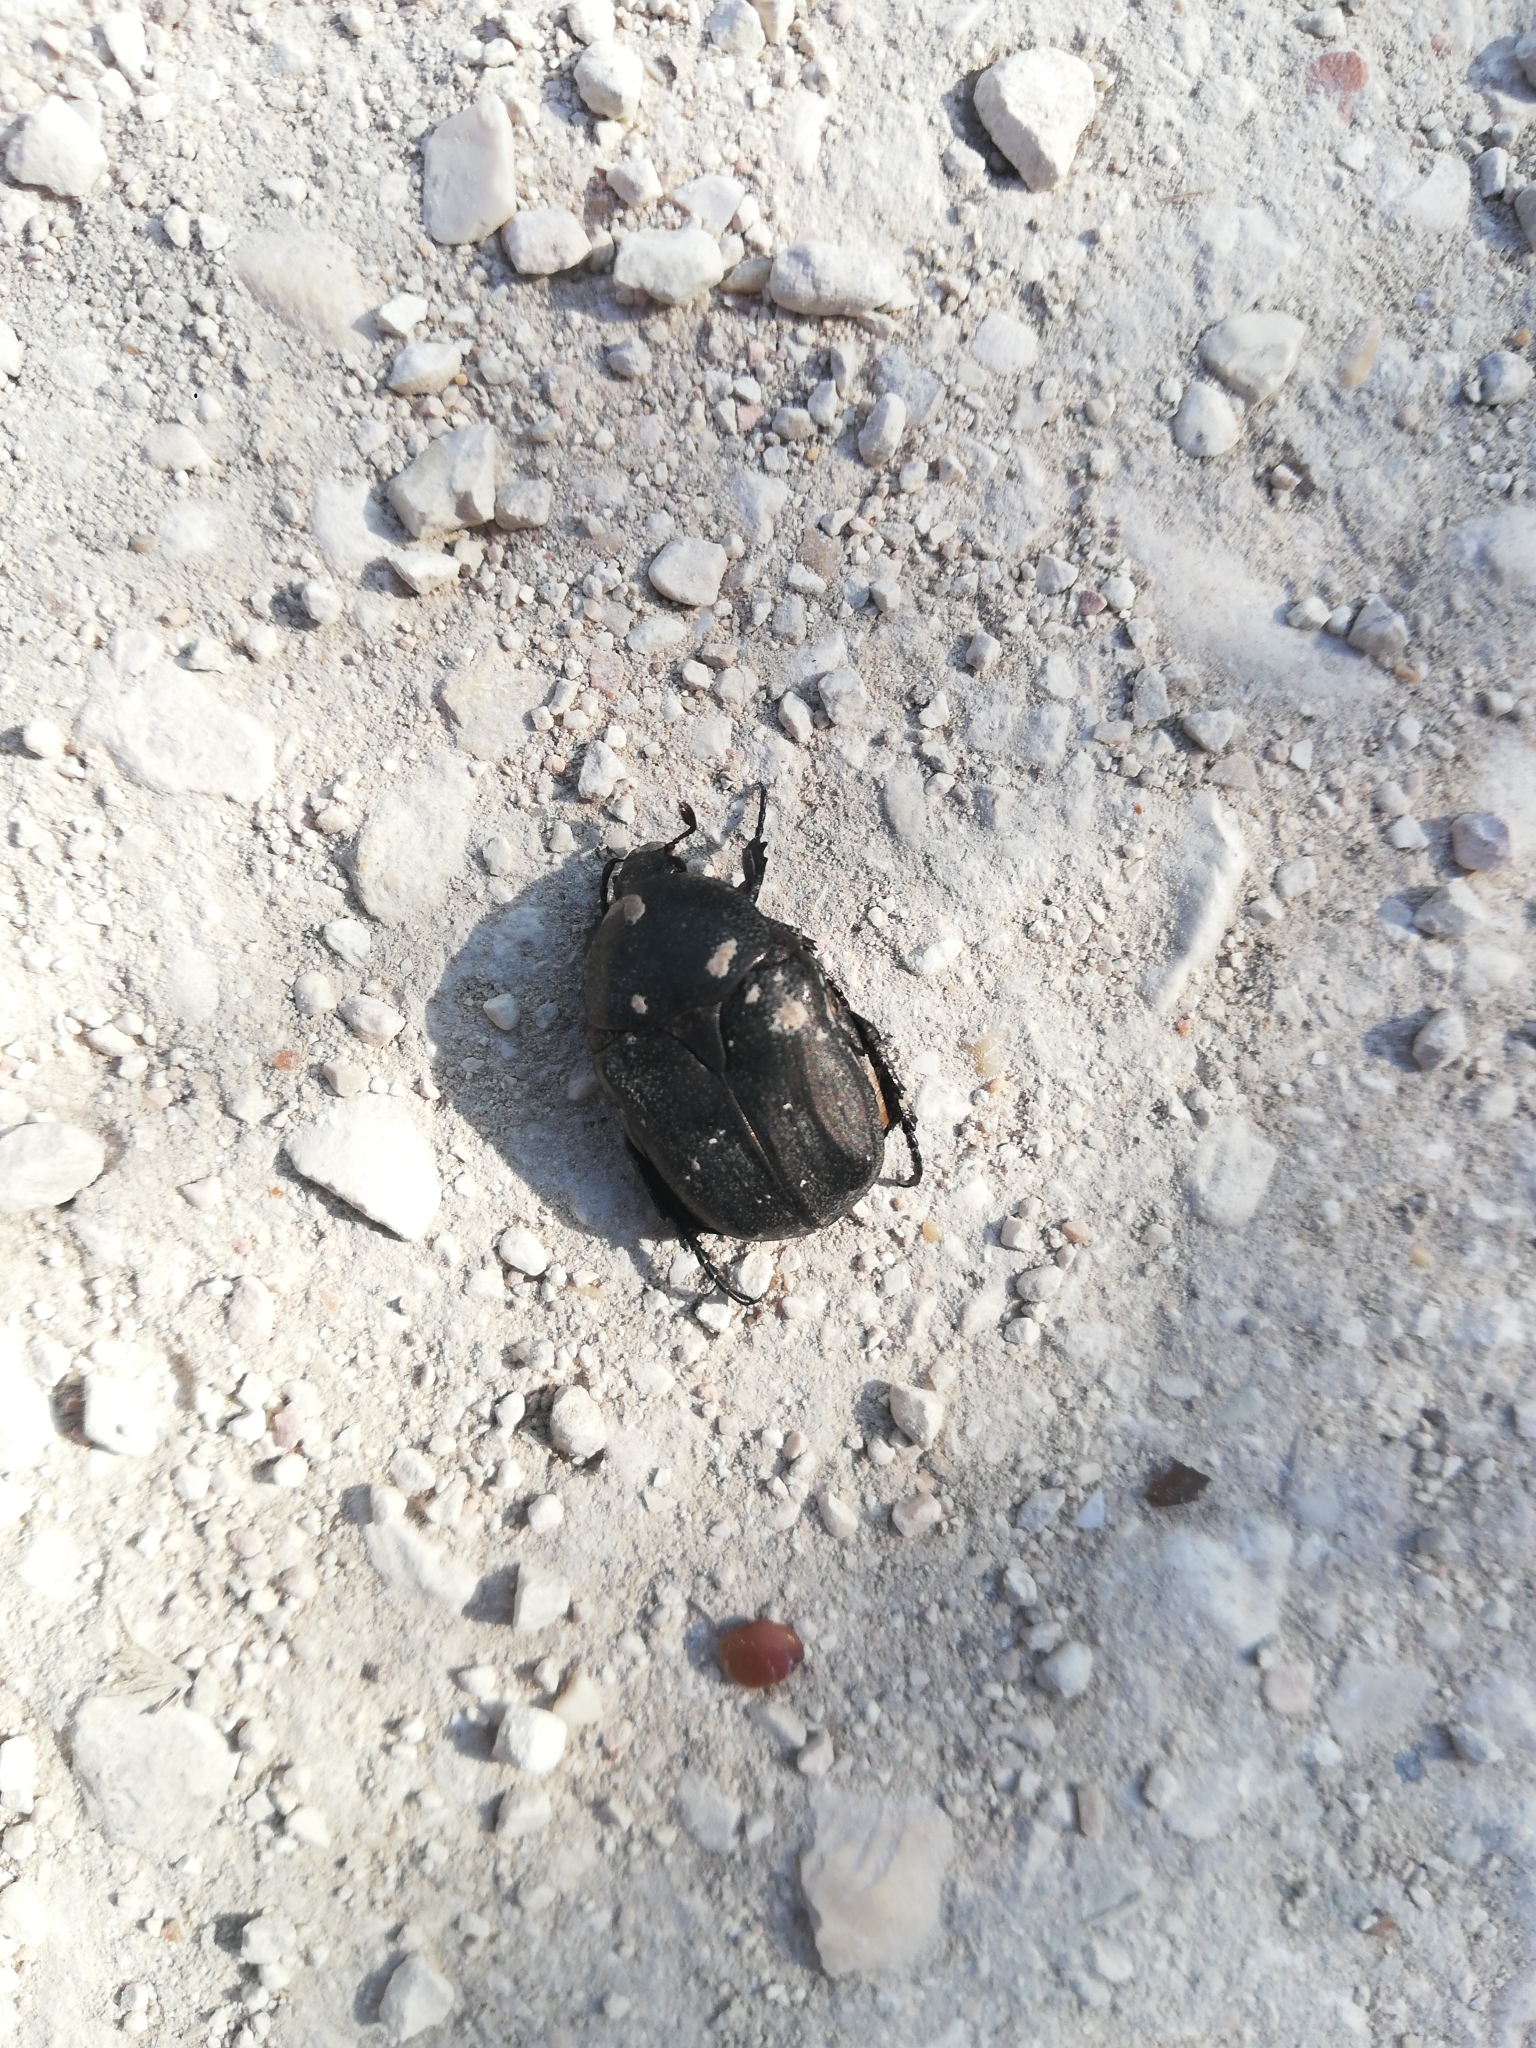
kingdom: Animalia
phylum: Arthropoda
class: Insecta
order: Coleoptera
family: Scarabaeidae
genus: Protaetia
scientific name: Protaetia morio
